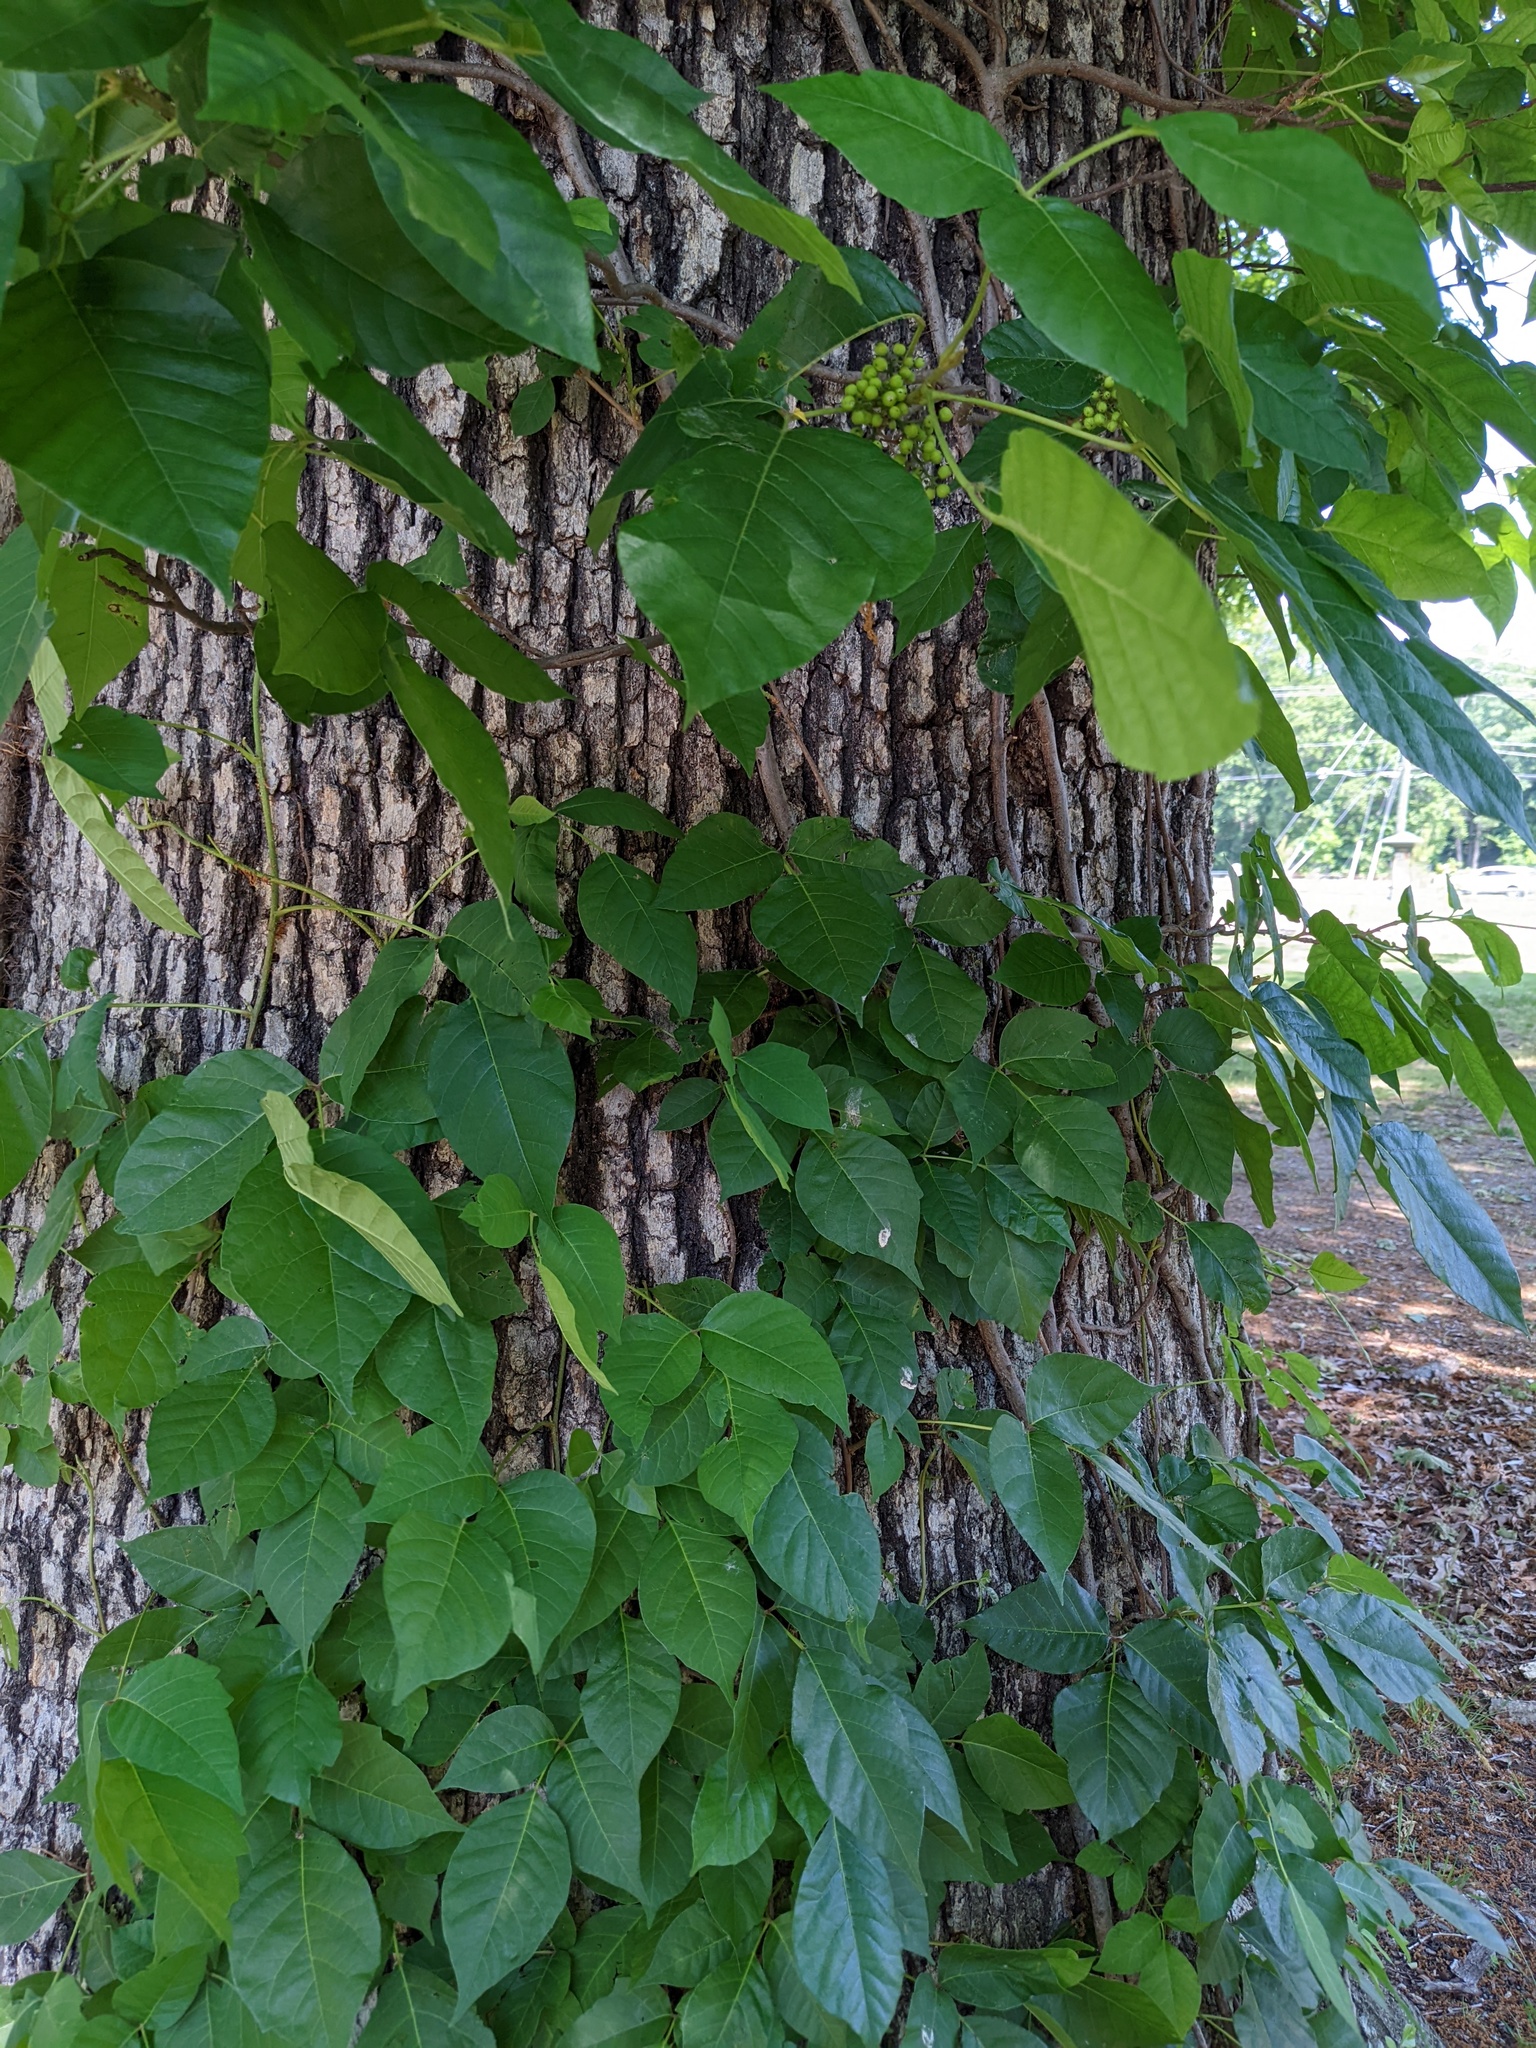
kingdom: Plantae
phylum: Tracheophyta
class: Magnoliopsida
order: Sapindales
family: Anacardiaceae
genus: Toxicodendron
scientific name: Toxicodendron radicans
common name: Poison ivy
